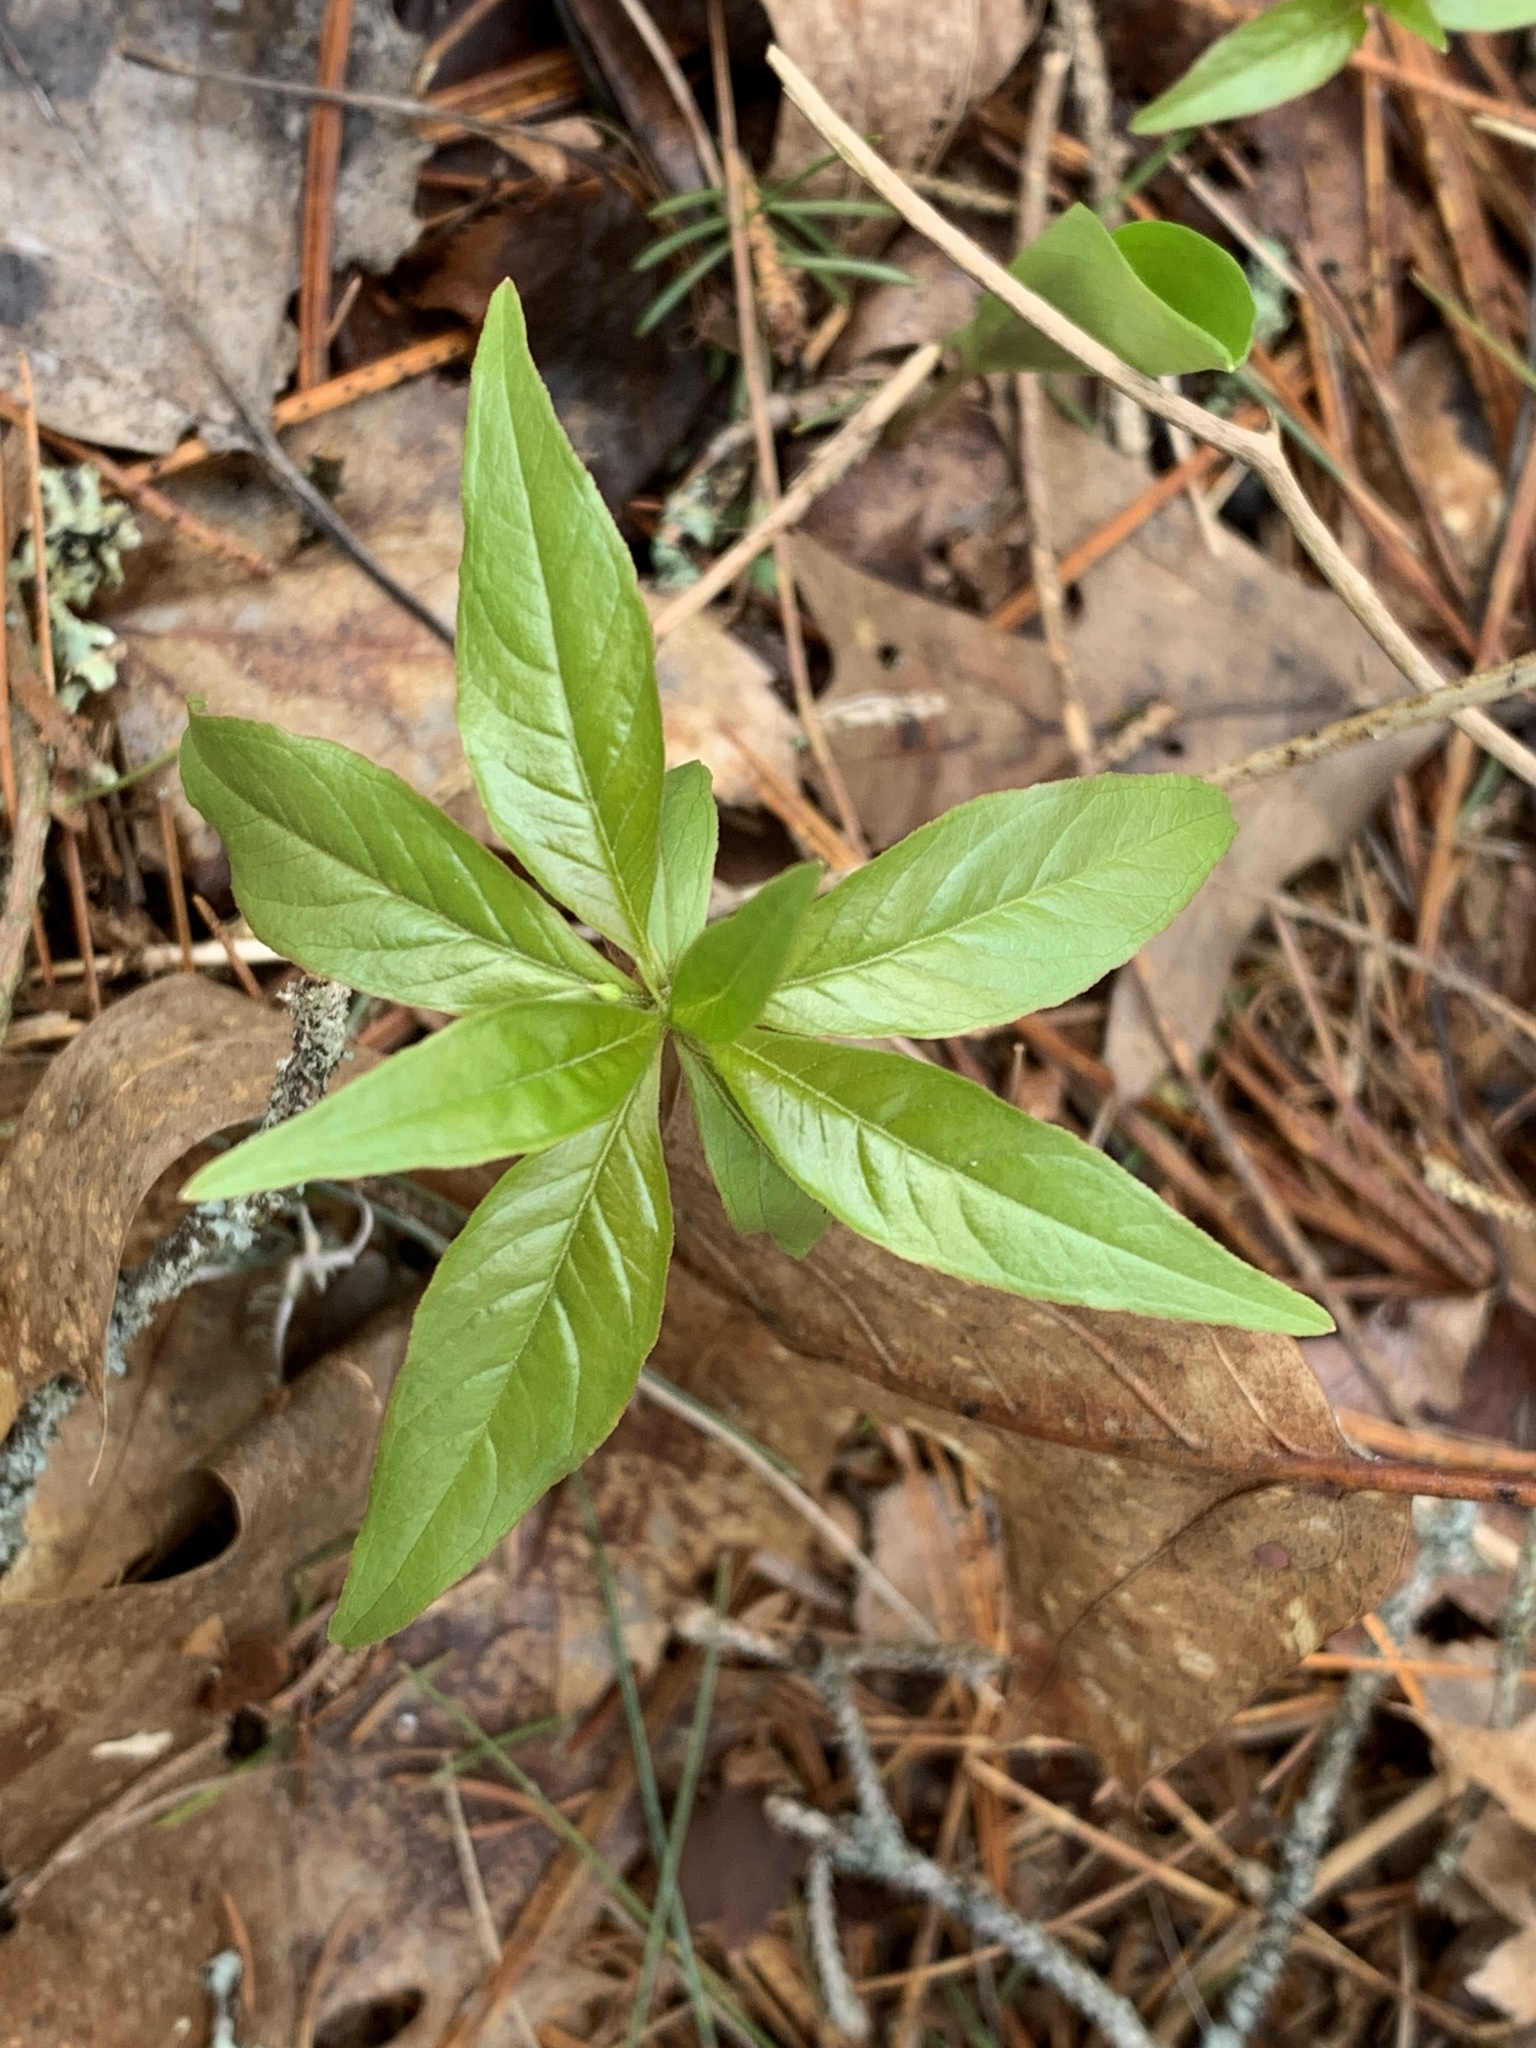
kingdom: Plantae
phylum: Tracheophyta
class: Magnoliopsida
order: Ericales
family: Primulaceae
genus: Lysimachia
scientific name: Lysimachia borealis
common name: American starflower
